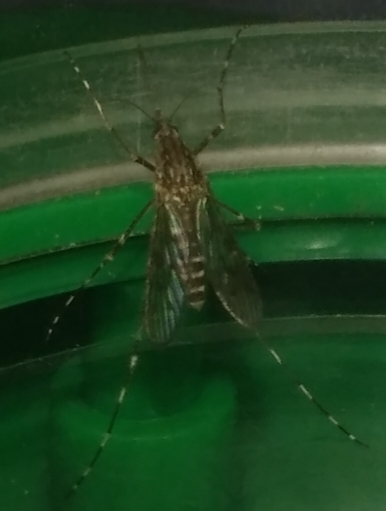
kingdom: Animalia
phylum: Arthropoda
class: Insecta
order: Diptera
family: Culicidae
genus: Culiseta
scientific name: Culiseta annulata
